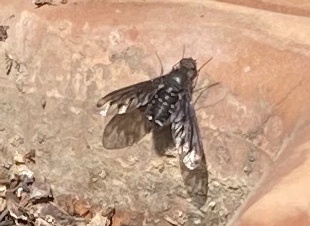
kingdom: Animalia
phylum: Arthropoda
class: Insecta
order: Diptera
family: Bombyliidae
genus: Anthrax
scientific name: Anthrax anthrax
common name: Anthracite bee-fly
